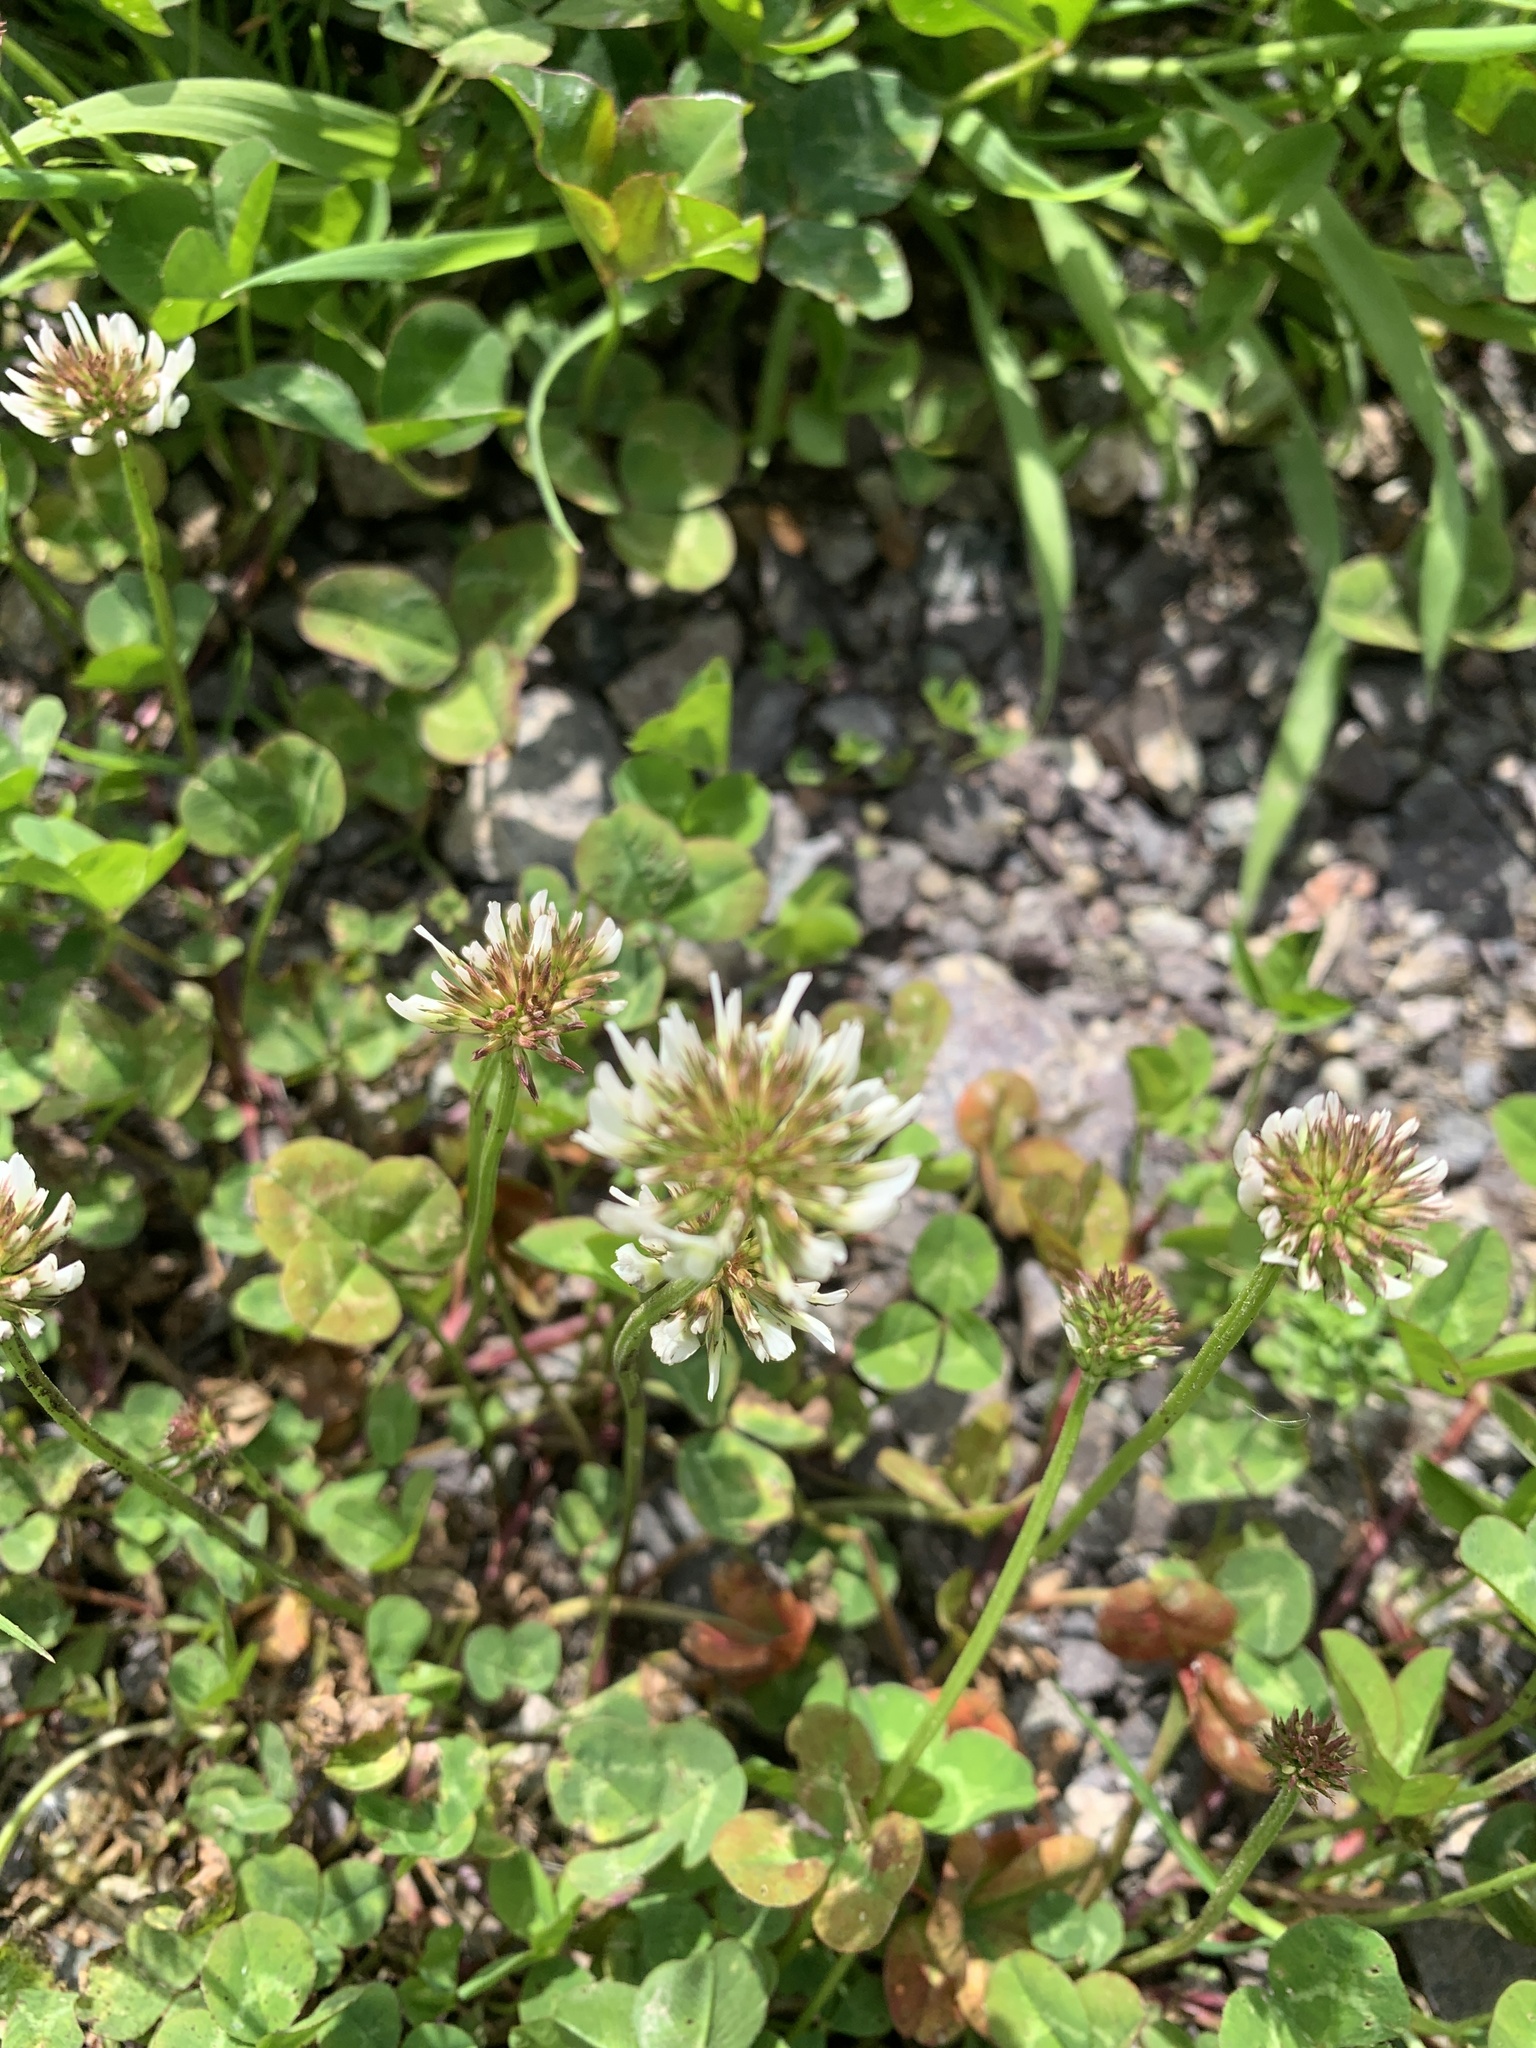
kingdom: Plantae
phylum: Tracheophyta
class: Magnoliopsida
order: Fabales
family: Fabaceae
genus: Trifolium
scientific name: Trifolium repens
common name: White clover
